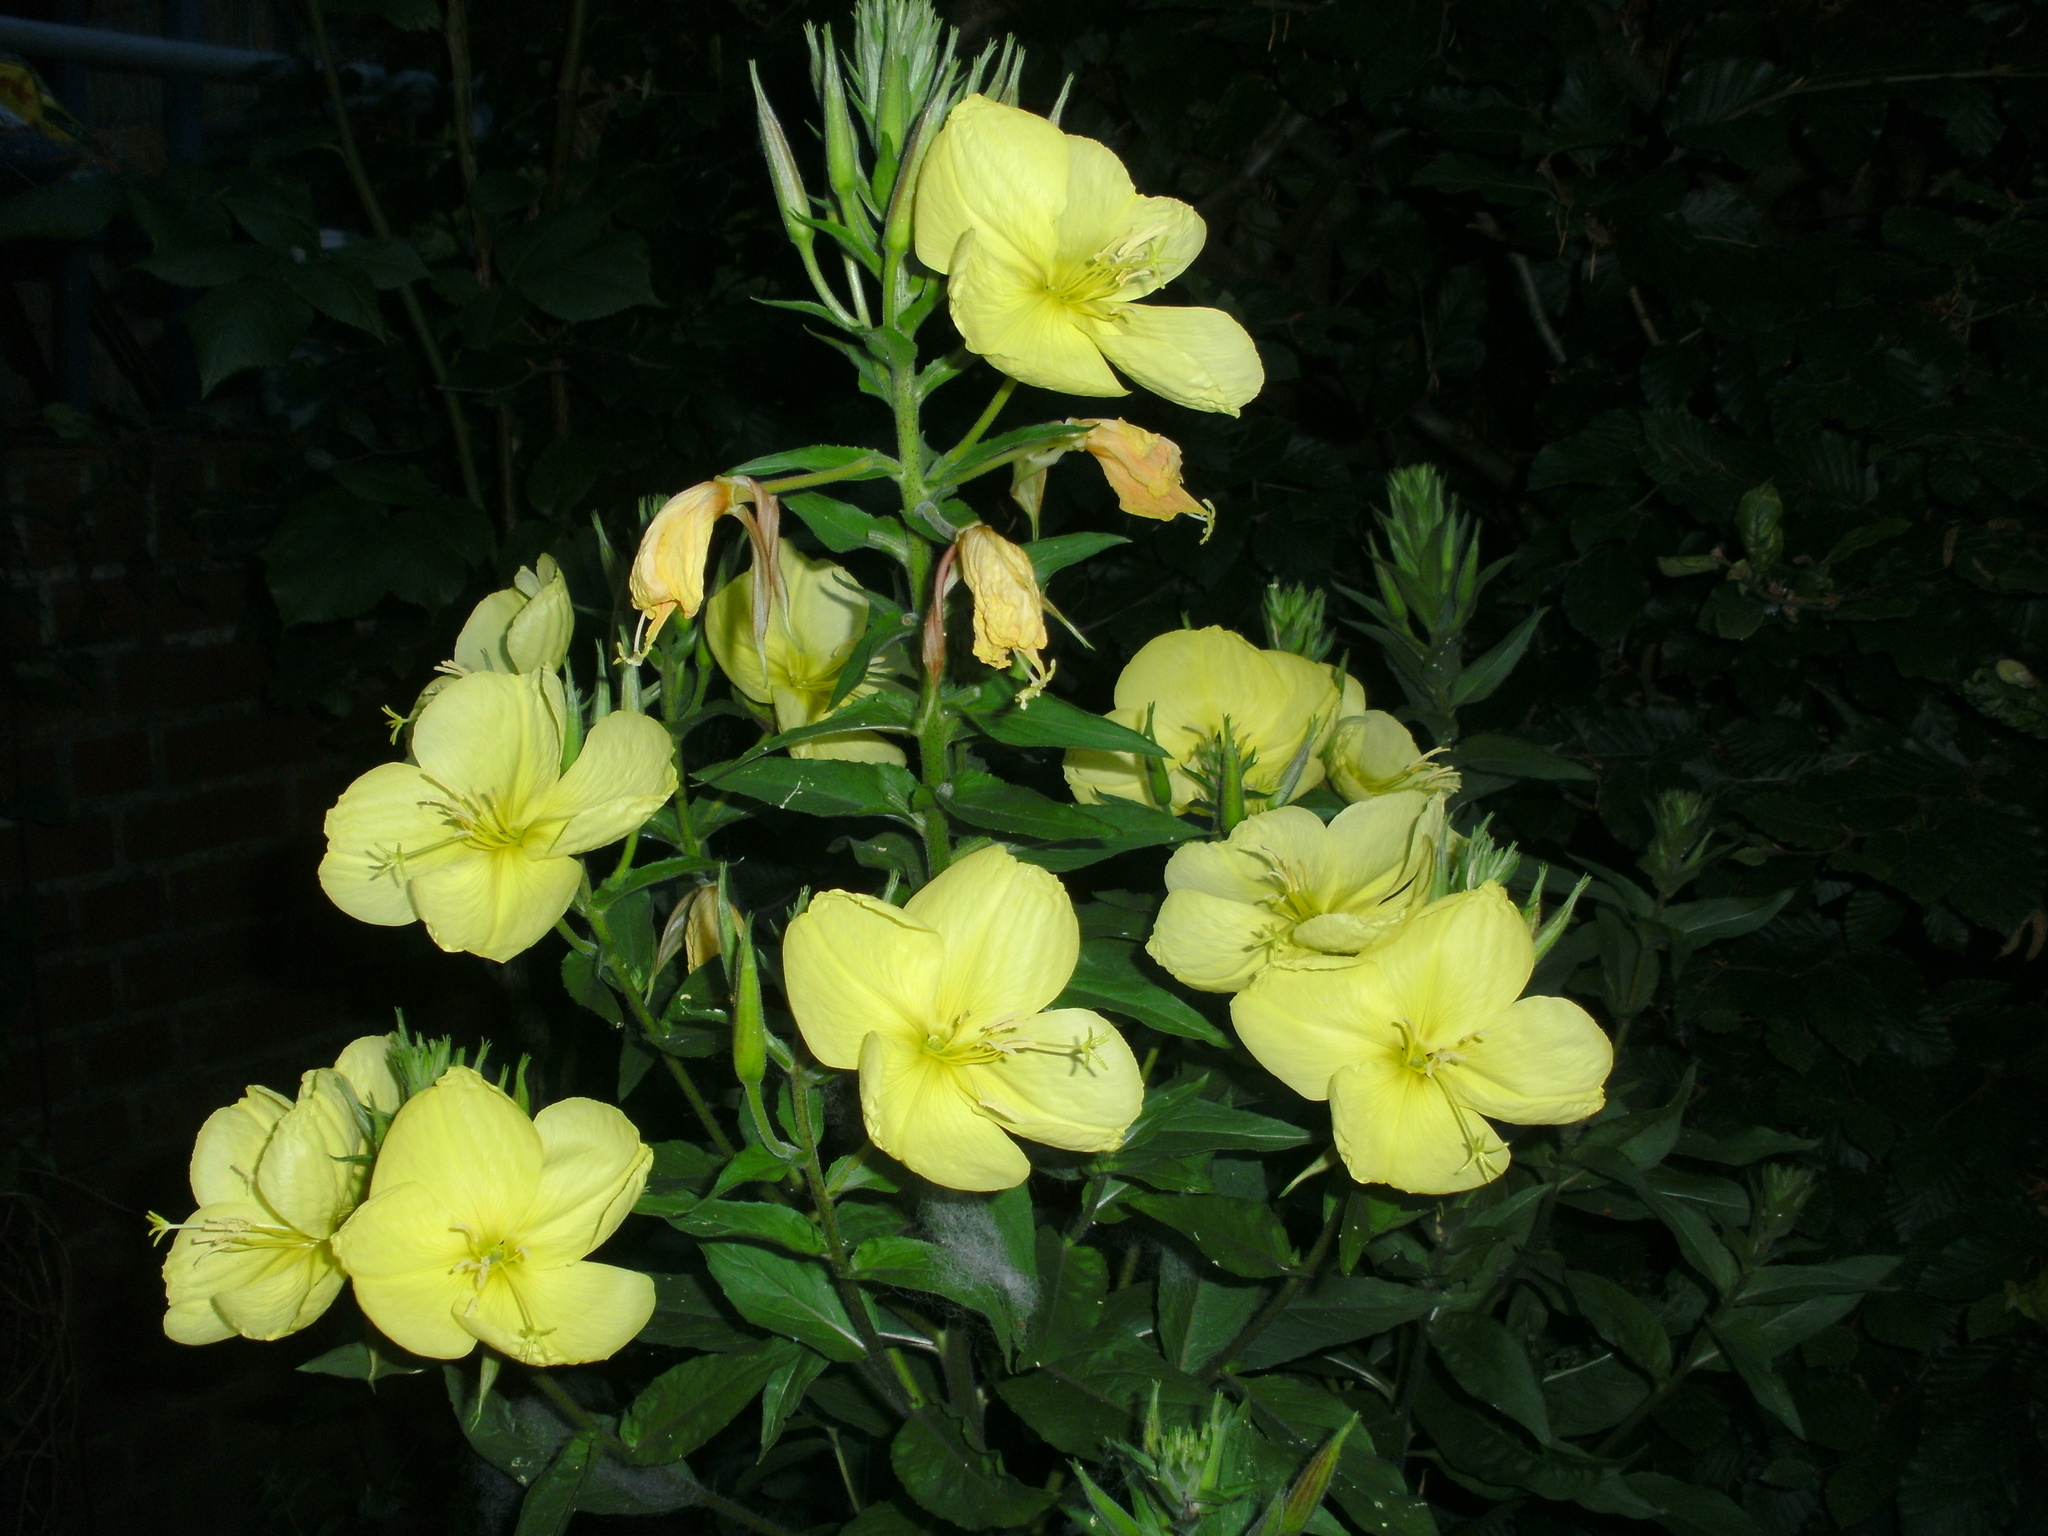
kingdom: Plantae
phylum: Tracheophyta
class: Magnoliopsida
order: Myrtales
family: Onagraceae
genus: Oenothera
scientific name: Oenothera glazioviana
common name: Large-flowered evening-primrose
